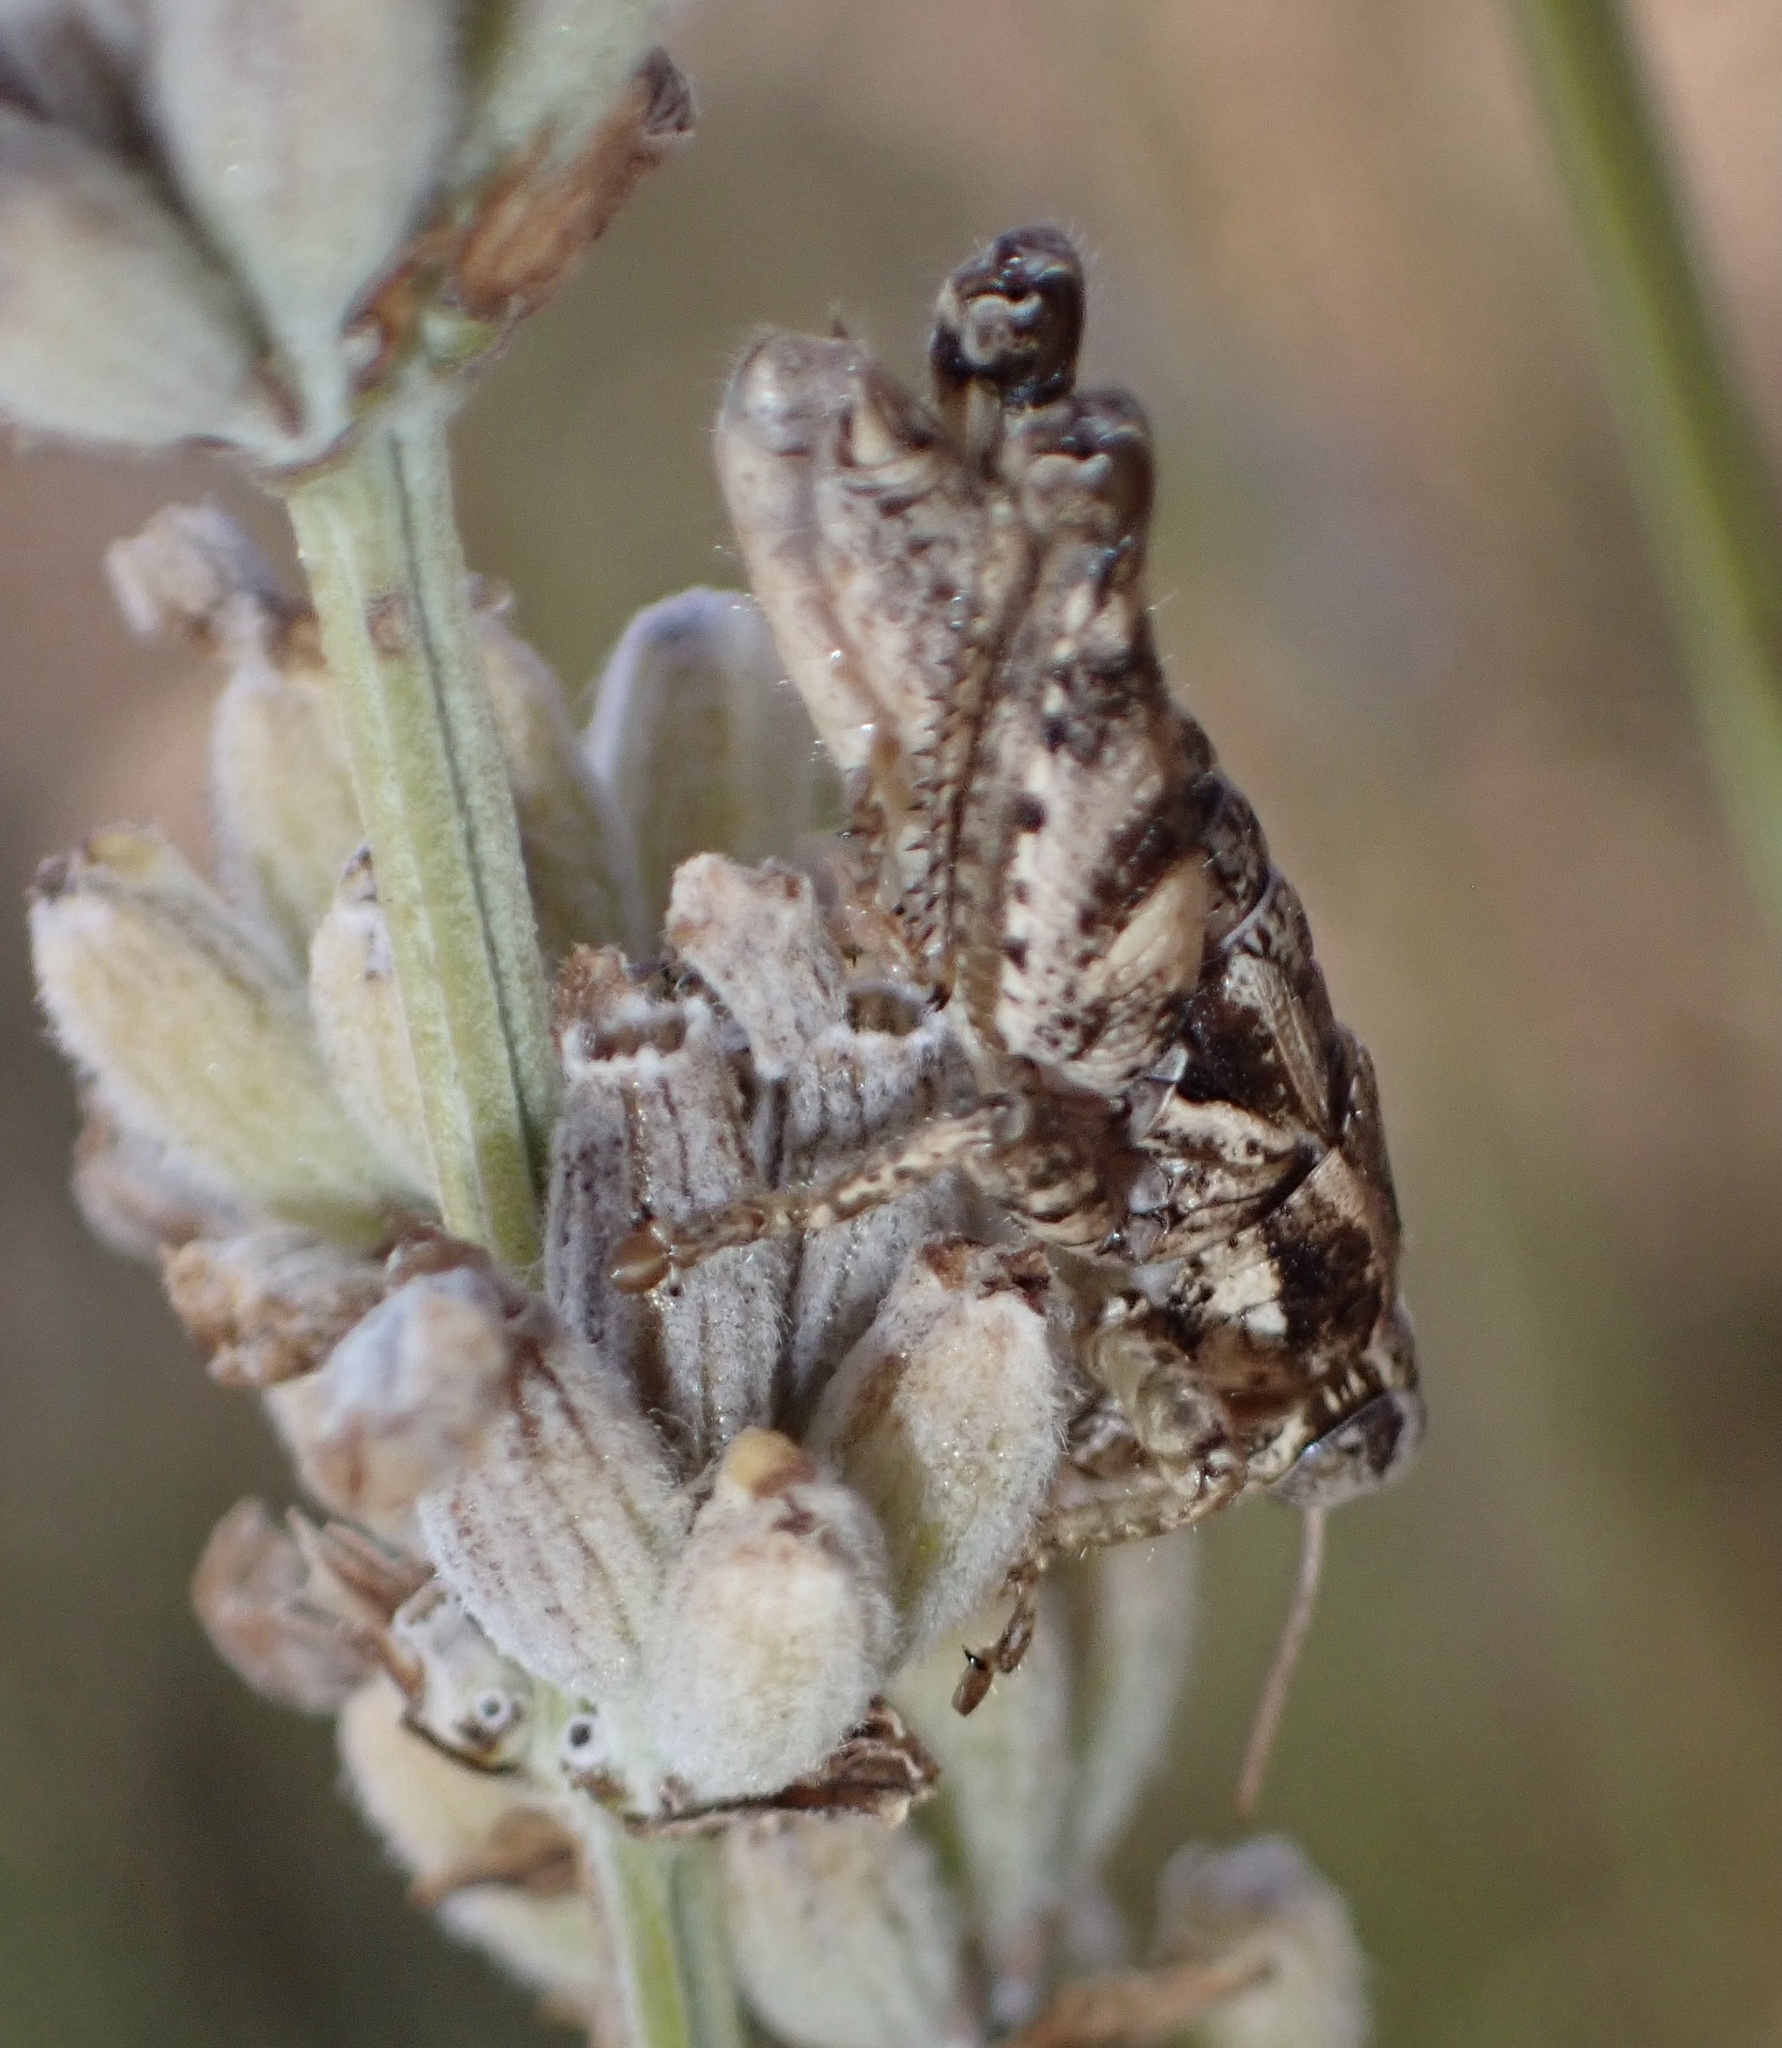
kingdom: Animalia
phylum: Arthropoda
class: Insecta
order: Orthoptera
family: Acrididae
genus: Pezotettix
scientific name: Pezotettix giornae
